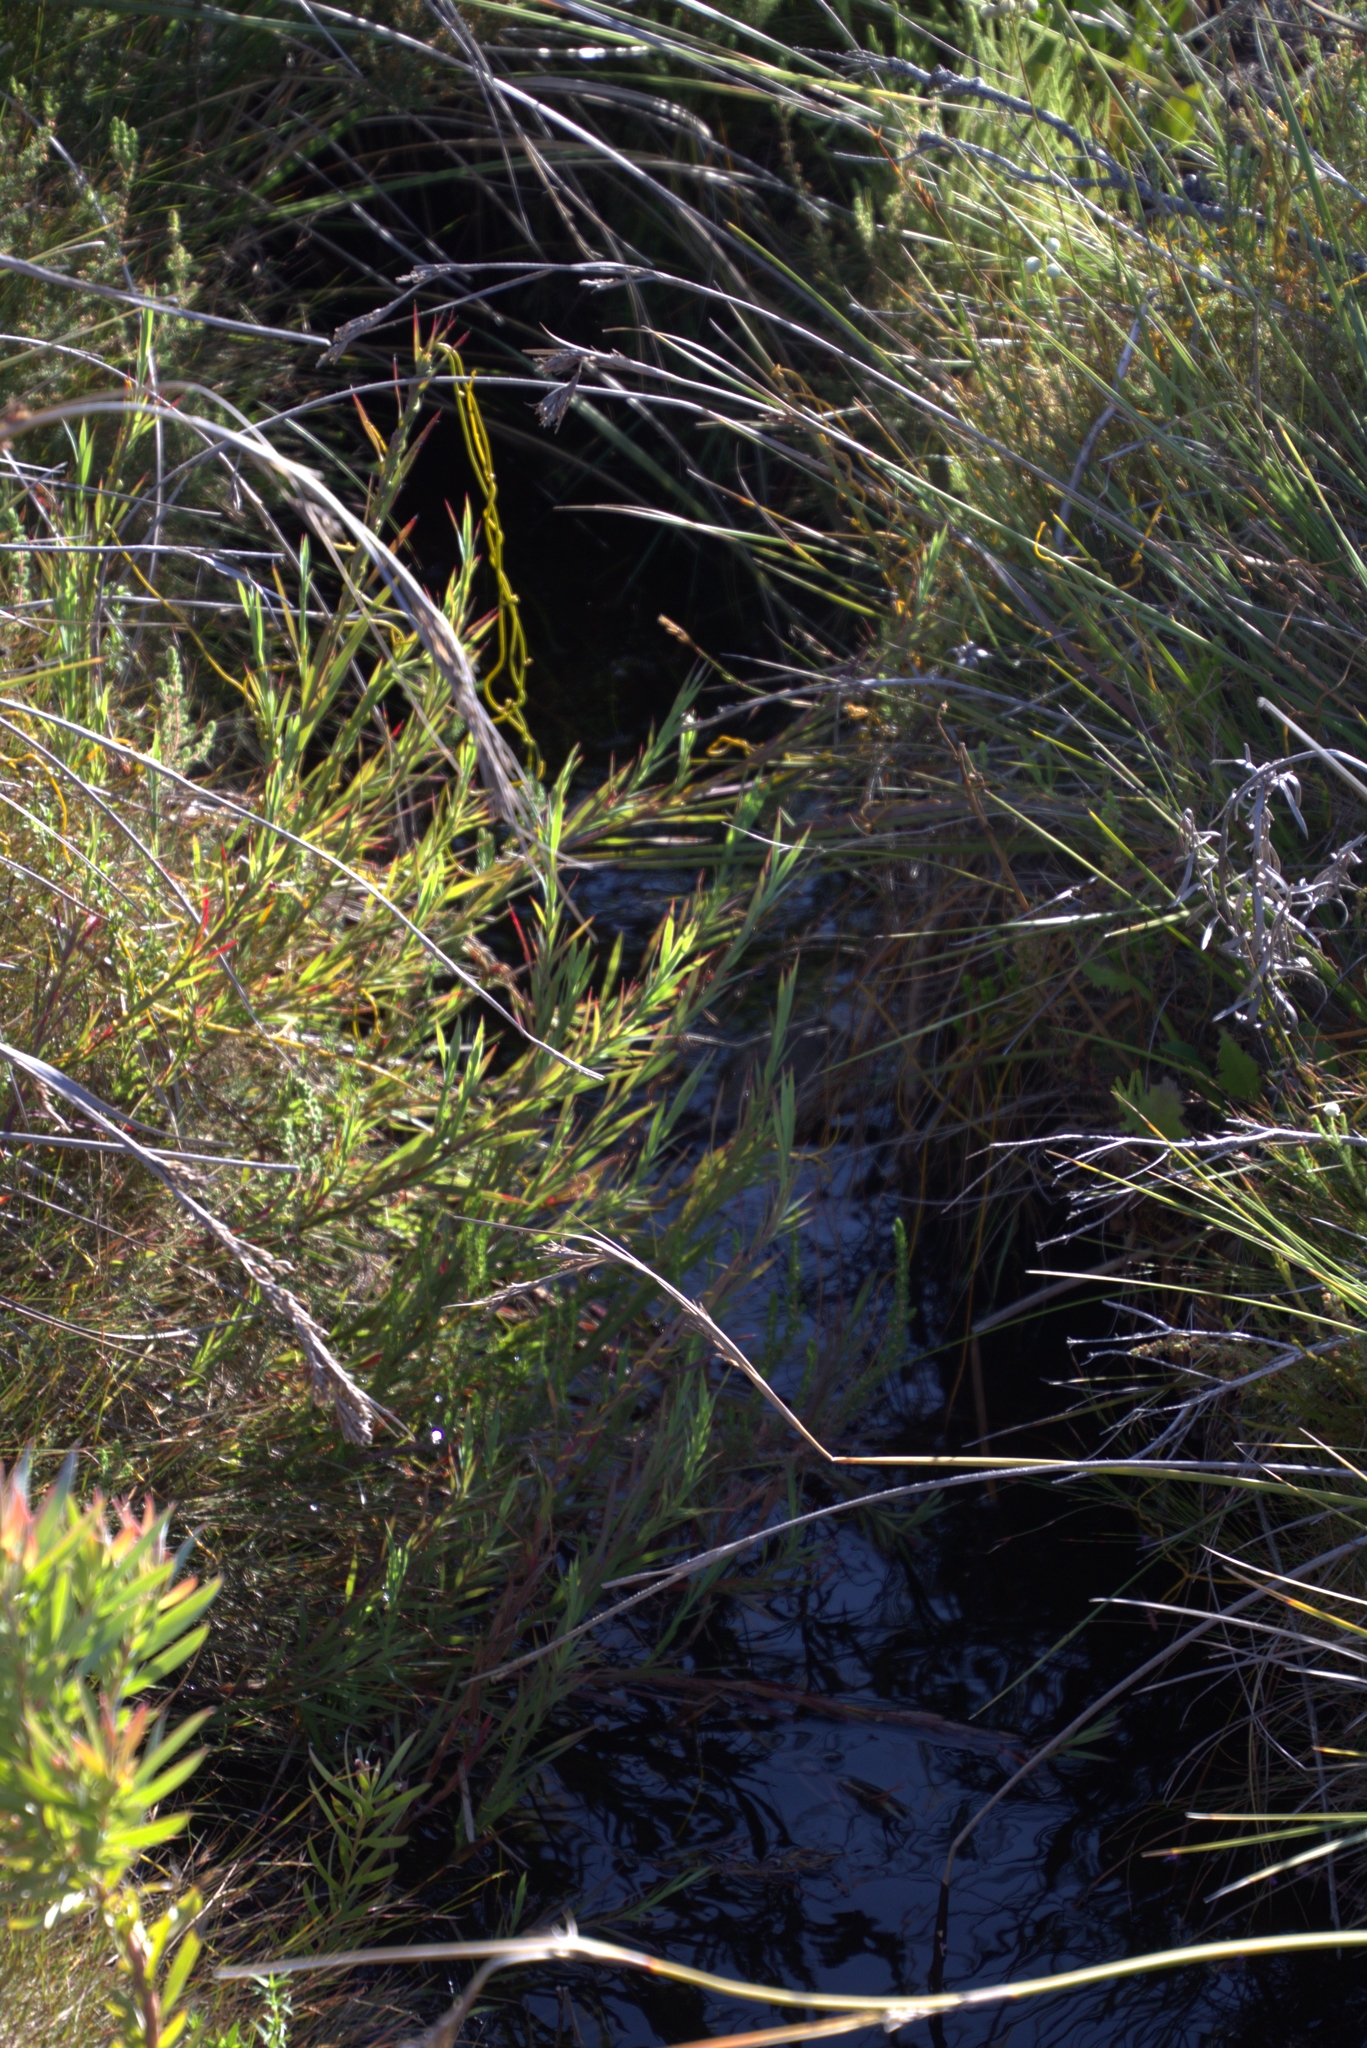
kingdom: Plantae
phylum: Tracheophyta
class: Magnoliopsida
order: Rosales
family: Rosaceae
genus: Cliffortia
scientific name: Cliffortia graminea
